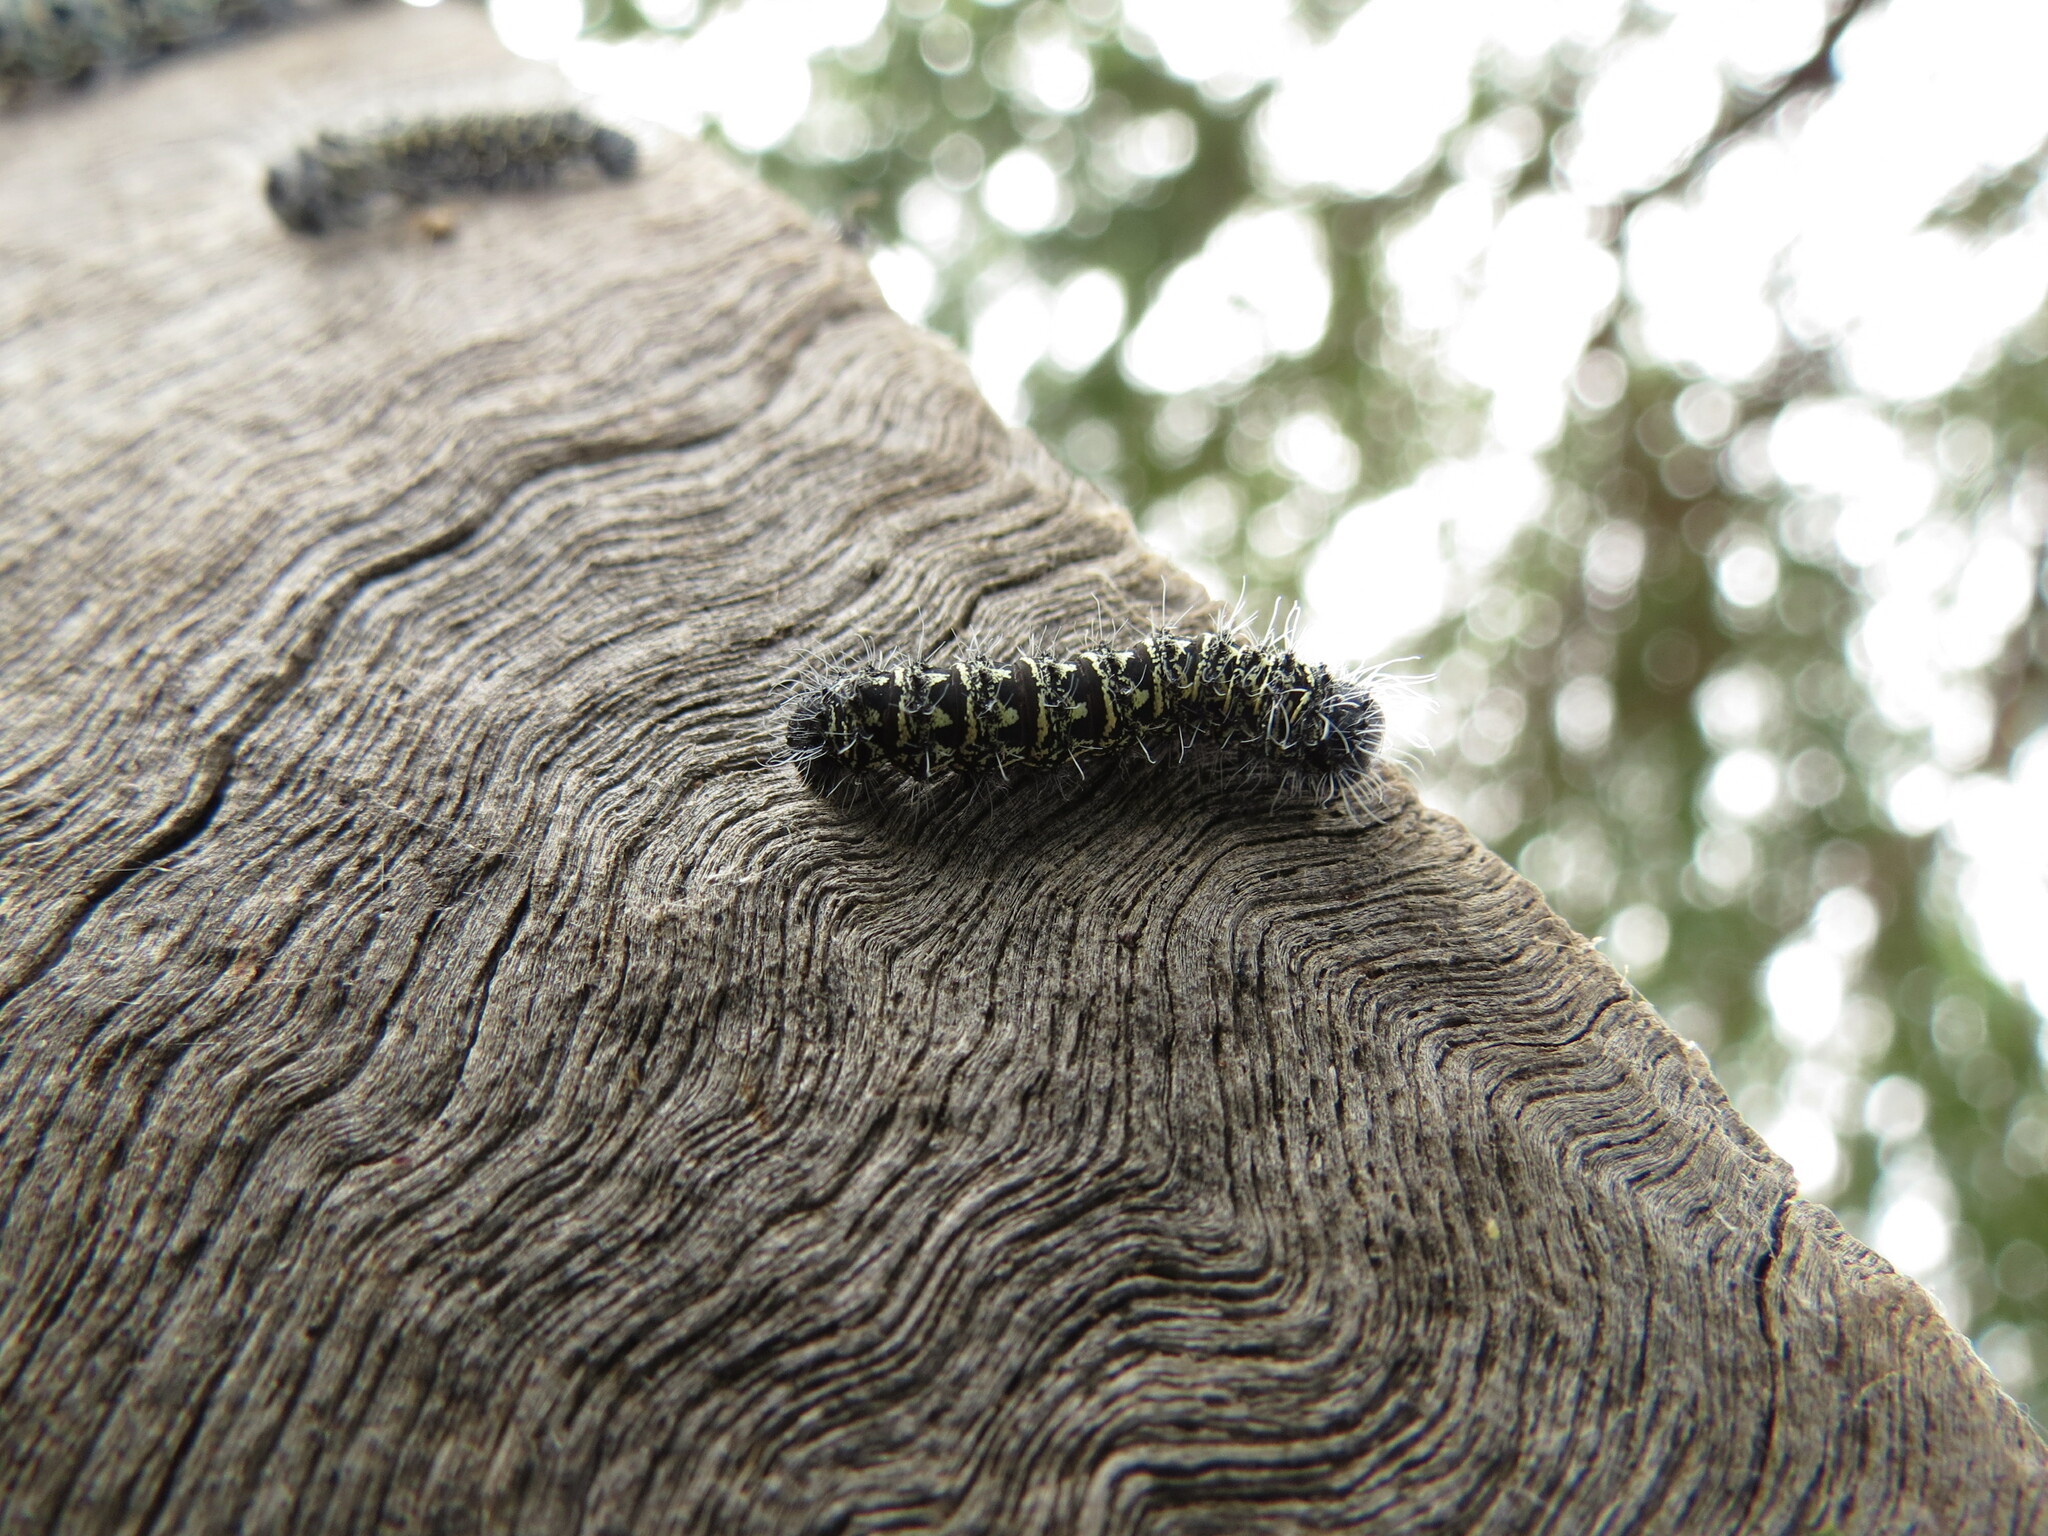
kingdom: Animalia
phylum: Arthropoda
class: Insecta
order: Lepidoptera
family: Saturniidae
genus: Gonimbrasia
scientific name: Gonimbrasia tyrrhea
